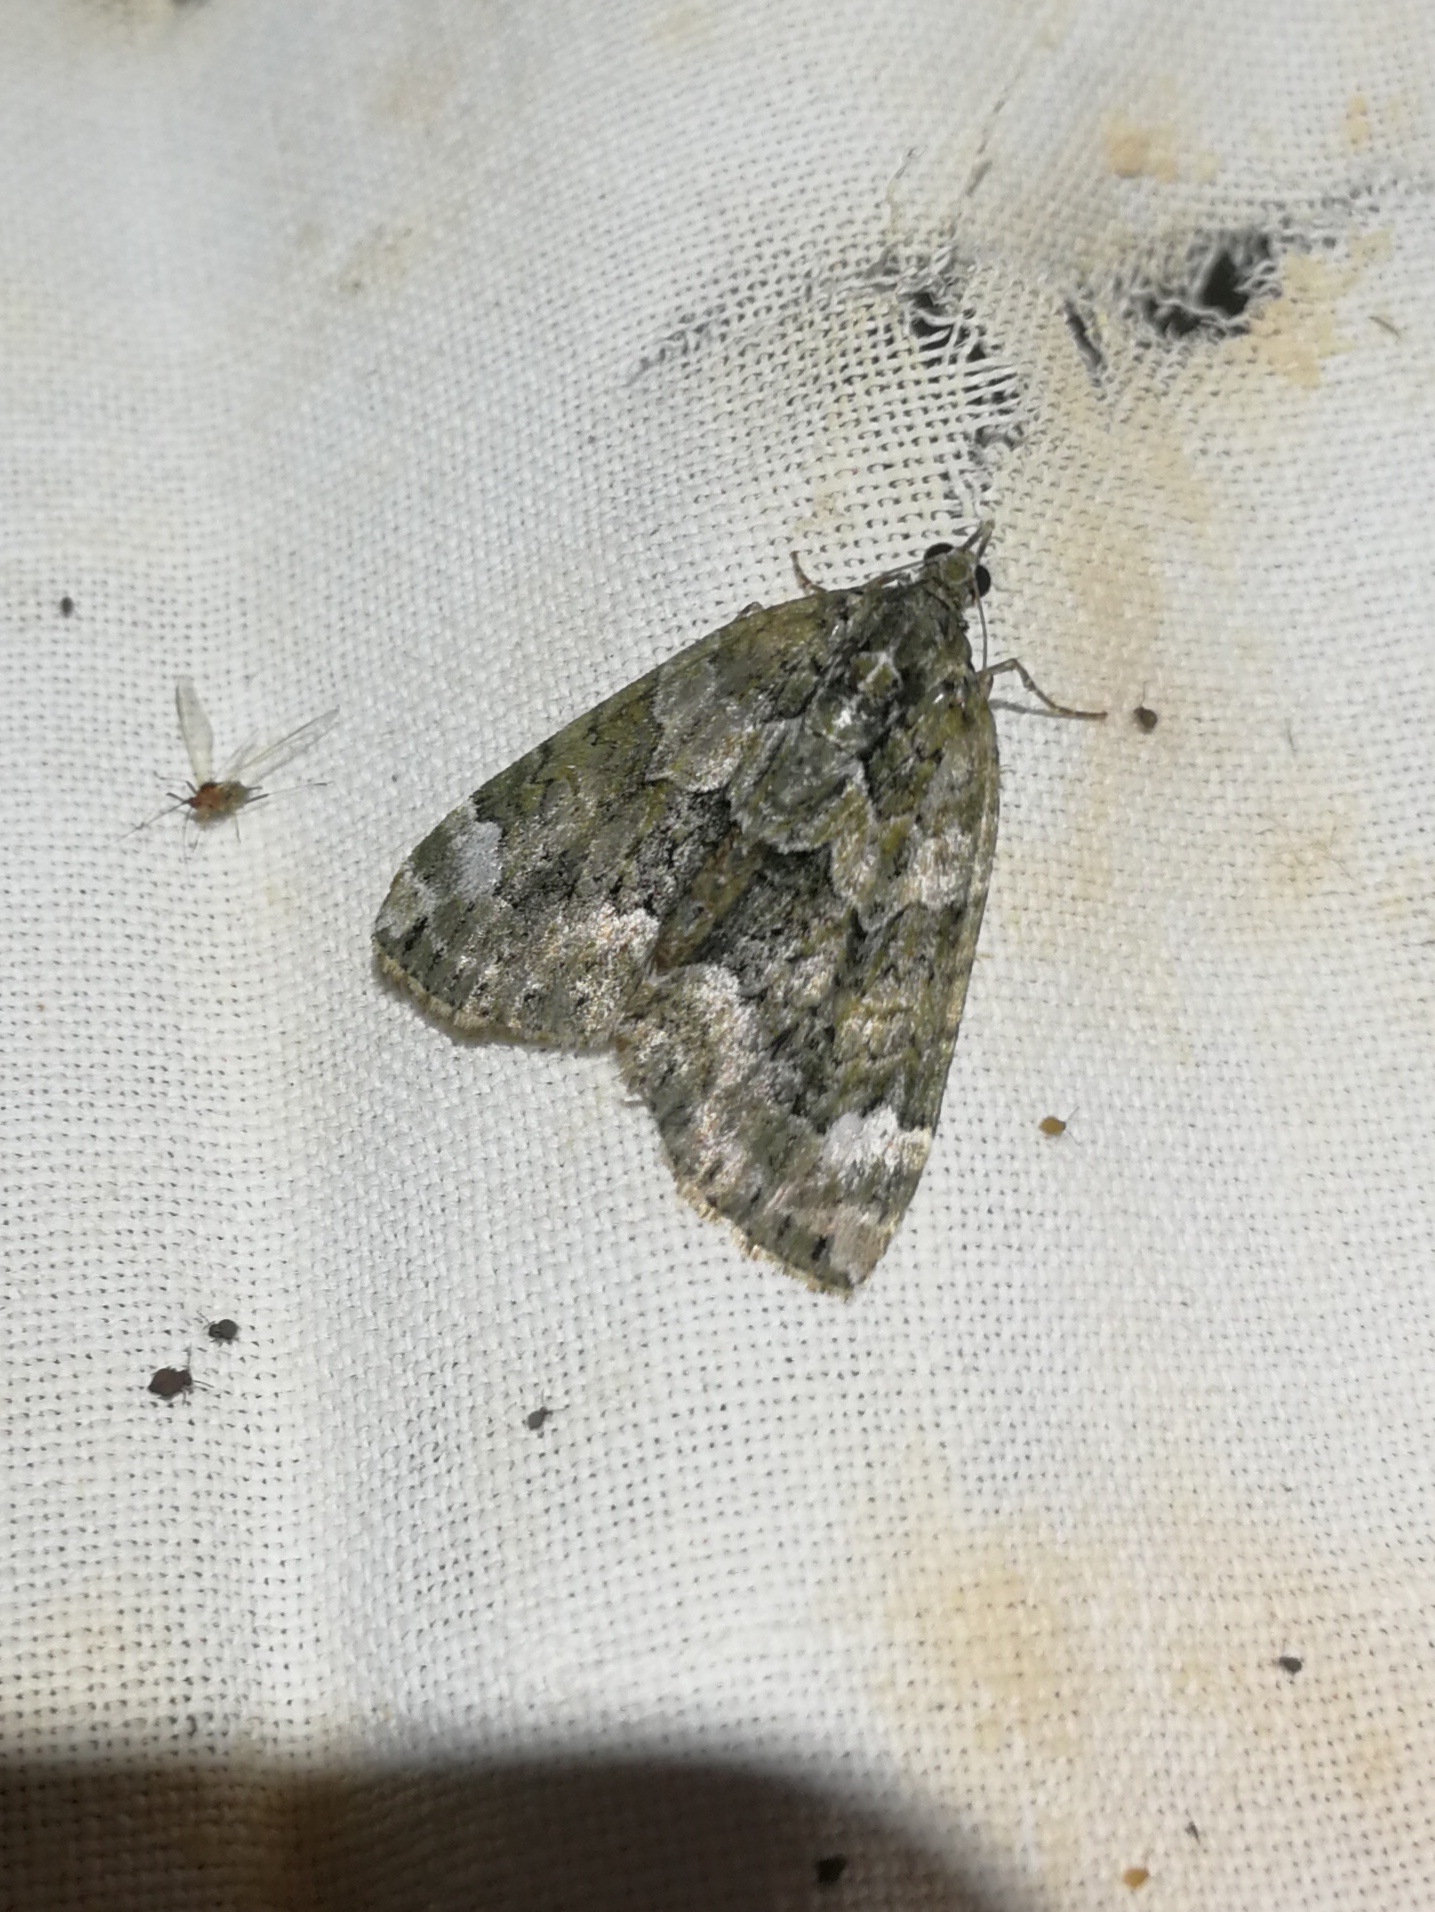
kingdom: Animalia
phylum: Arthropoda
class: Insecta
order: Lepidoptera
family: Geometridae
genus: Chloroclysta
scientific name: Chloroclysta siterata
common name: Red-green carpet
